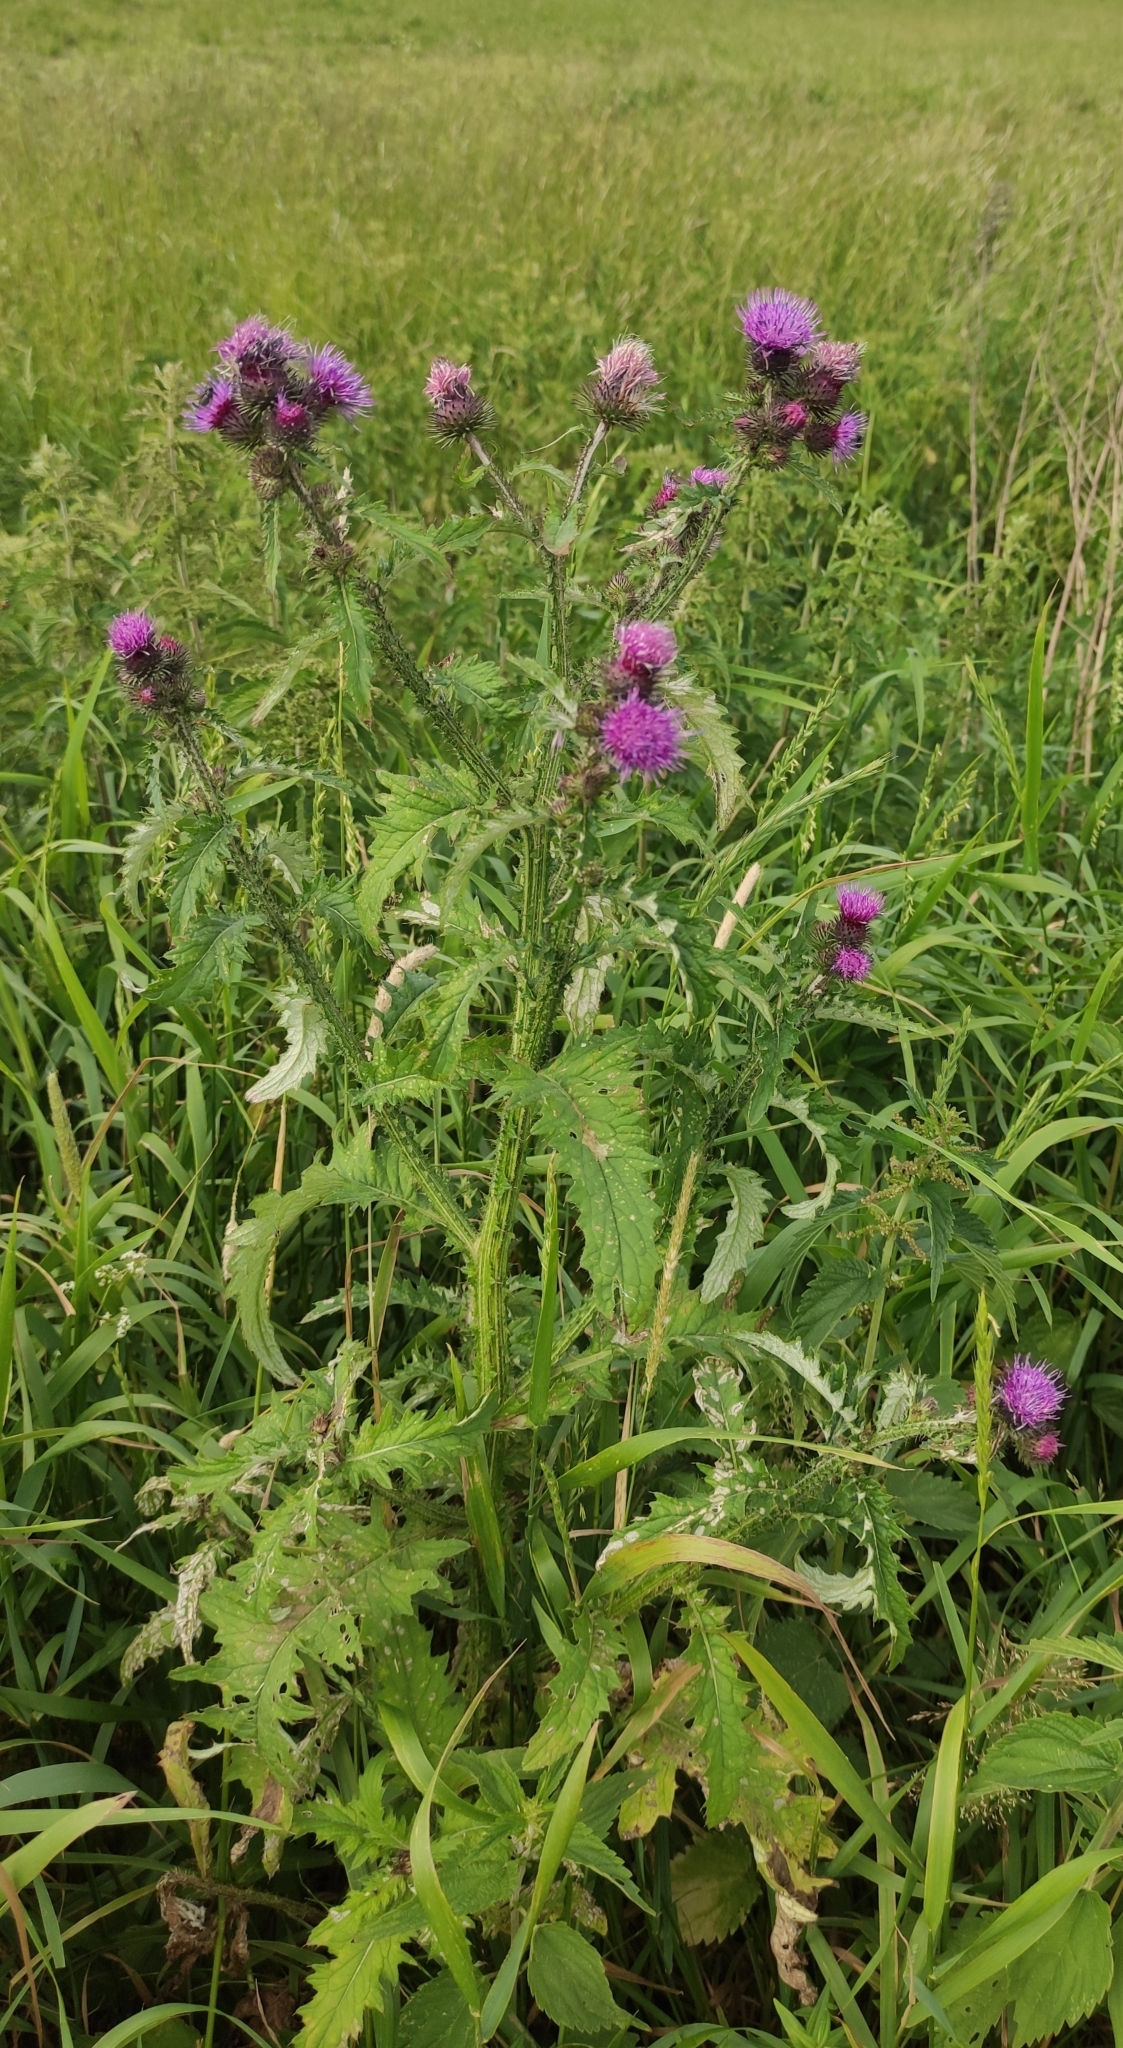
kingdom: Plantae
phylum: Tracheophyta
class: Magnoliopsida
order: Asterales
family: Asteraceae
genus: Carduus
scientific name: Carduus crispus
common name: Welted thistle
